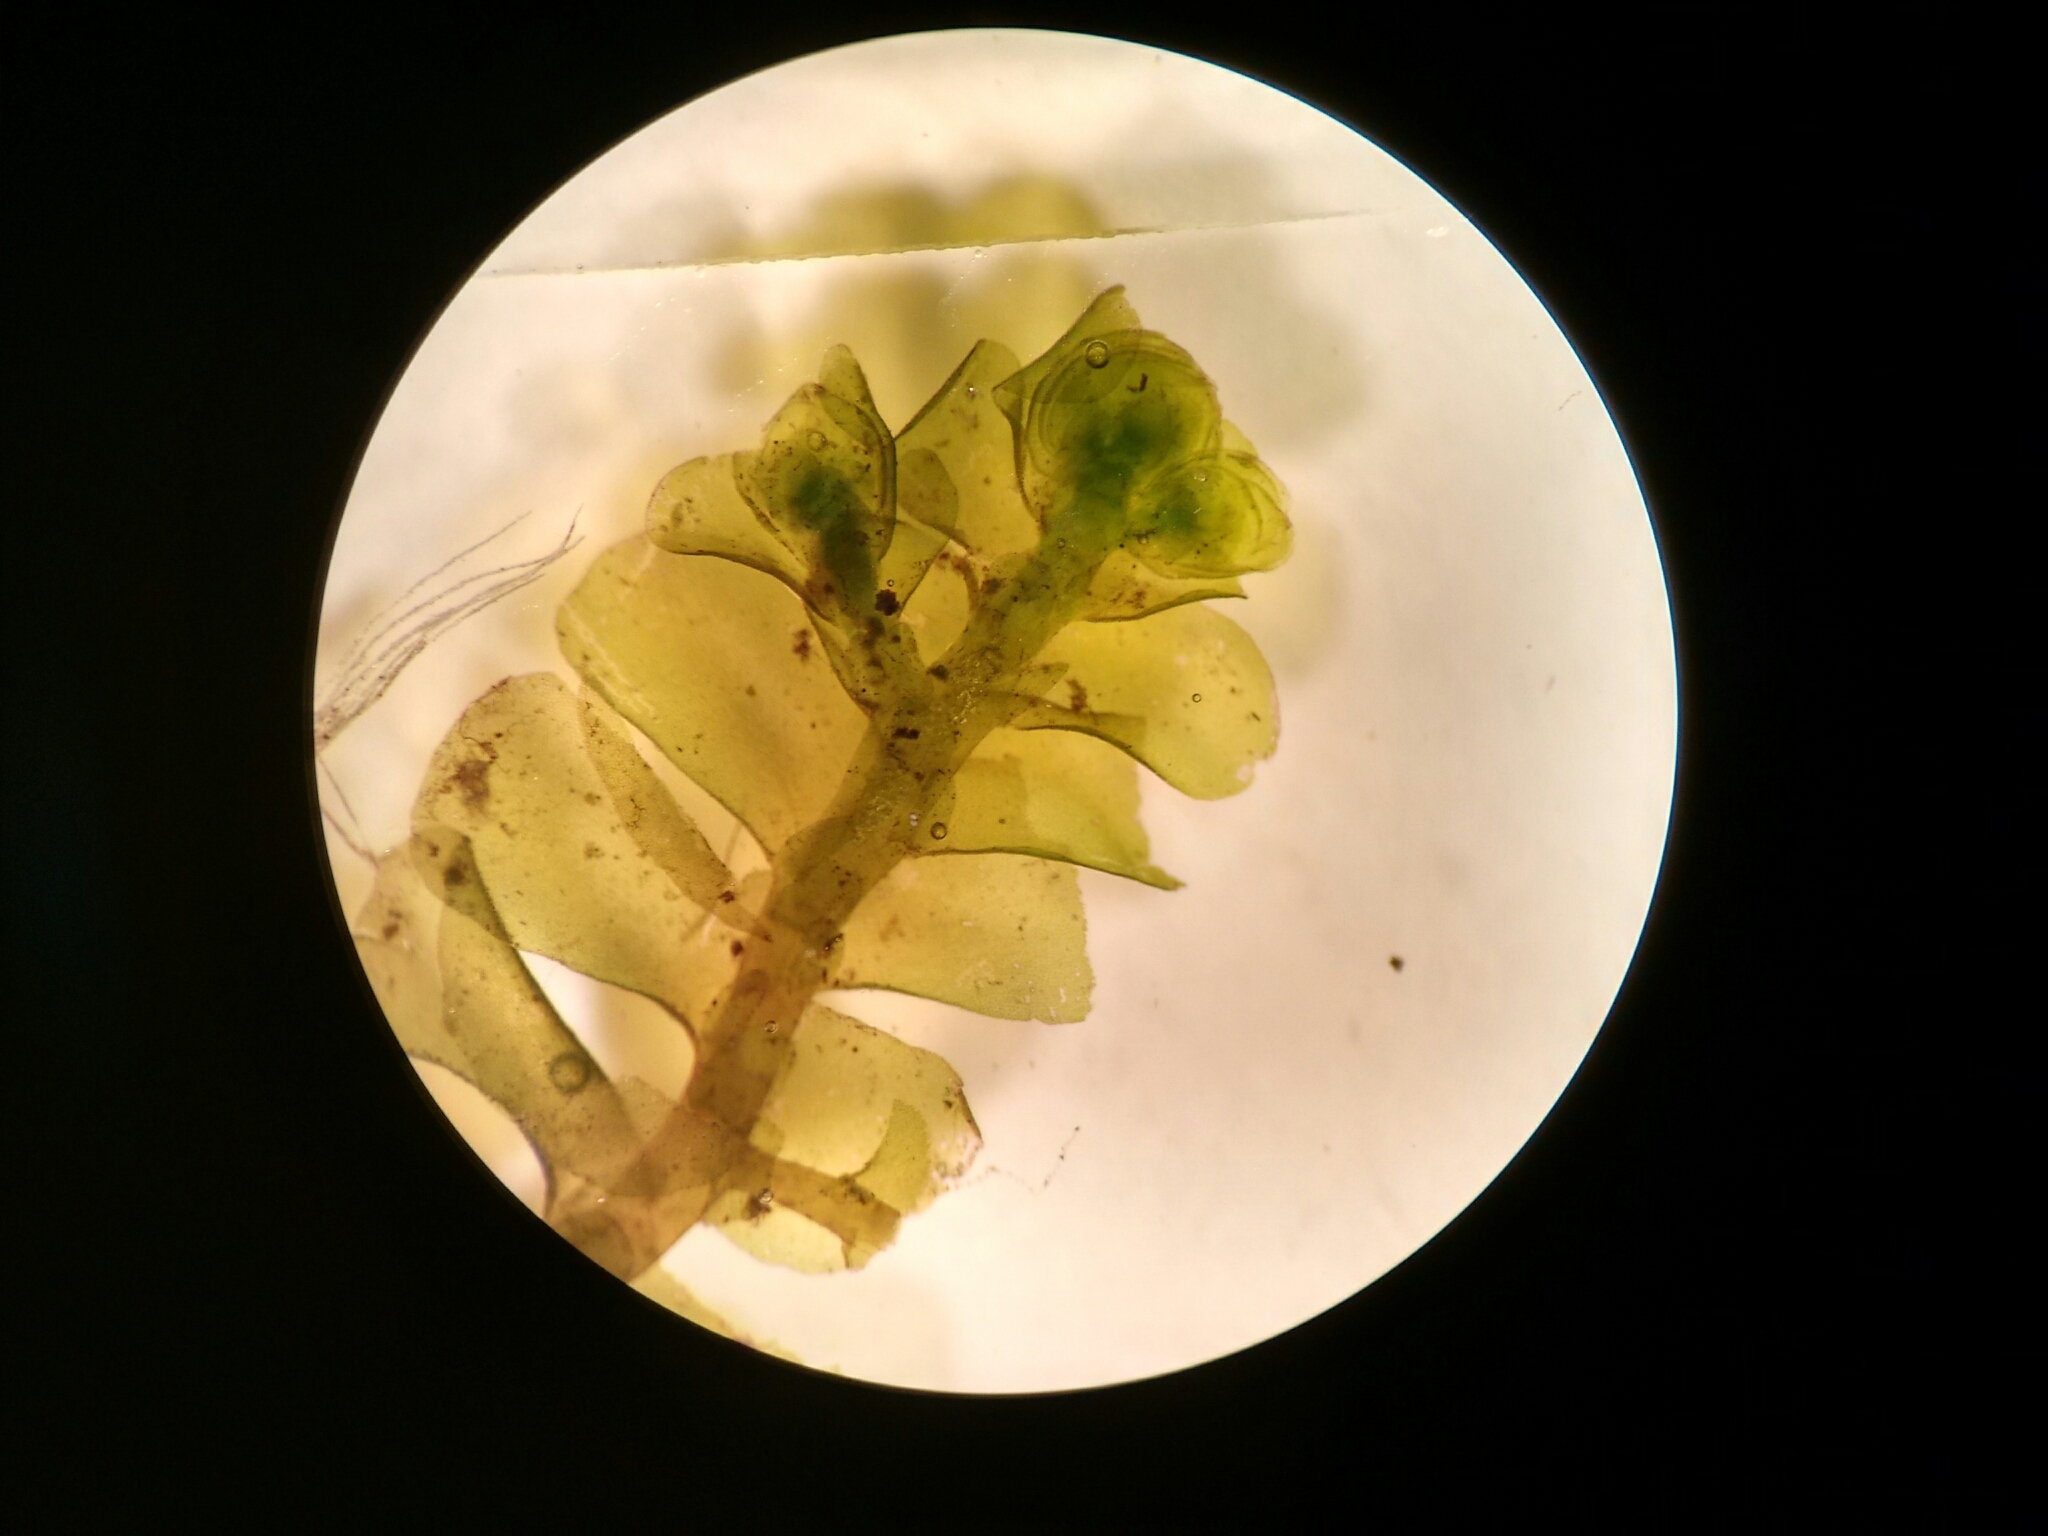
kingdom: Plantae
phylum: Marchantiophyta
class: Jungermanniopsida
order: Porellales
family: Porellaceae
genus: Porella
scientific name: Porella pinnata
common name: Pinnate scalewort
